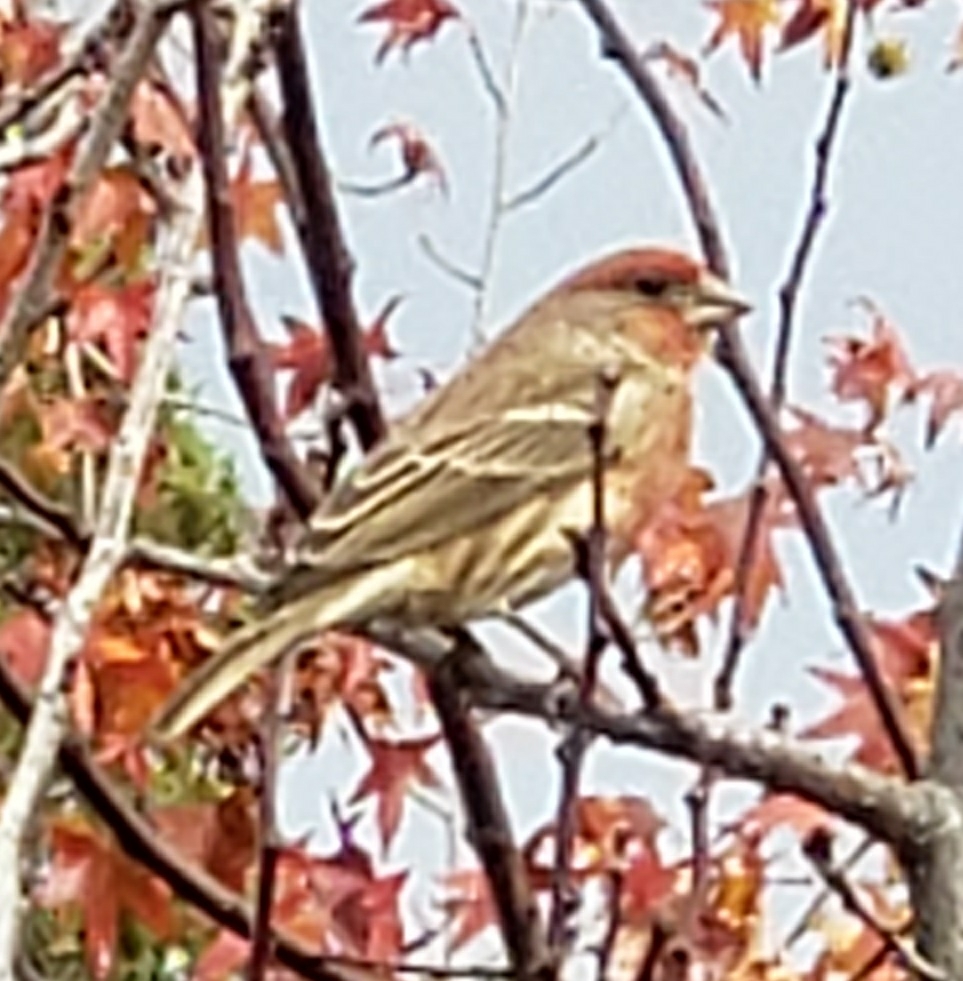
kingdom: Animalia
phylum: Chordata
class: Aves
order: Passeriformes
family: Fringillidae
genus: Haemorhous
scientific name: Haemorhous mexicanus
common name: House finch
